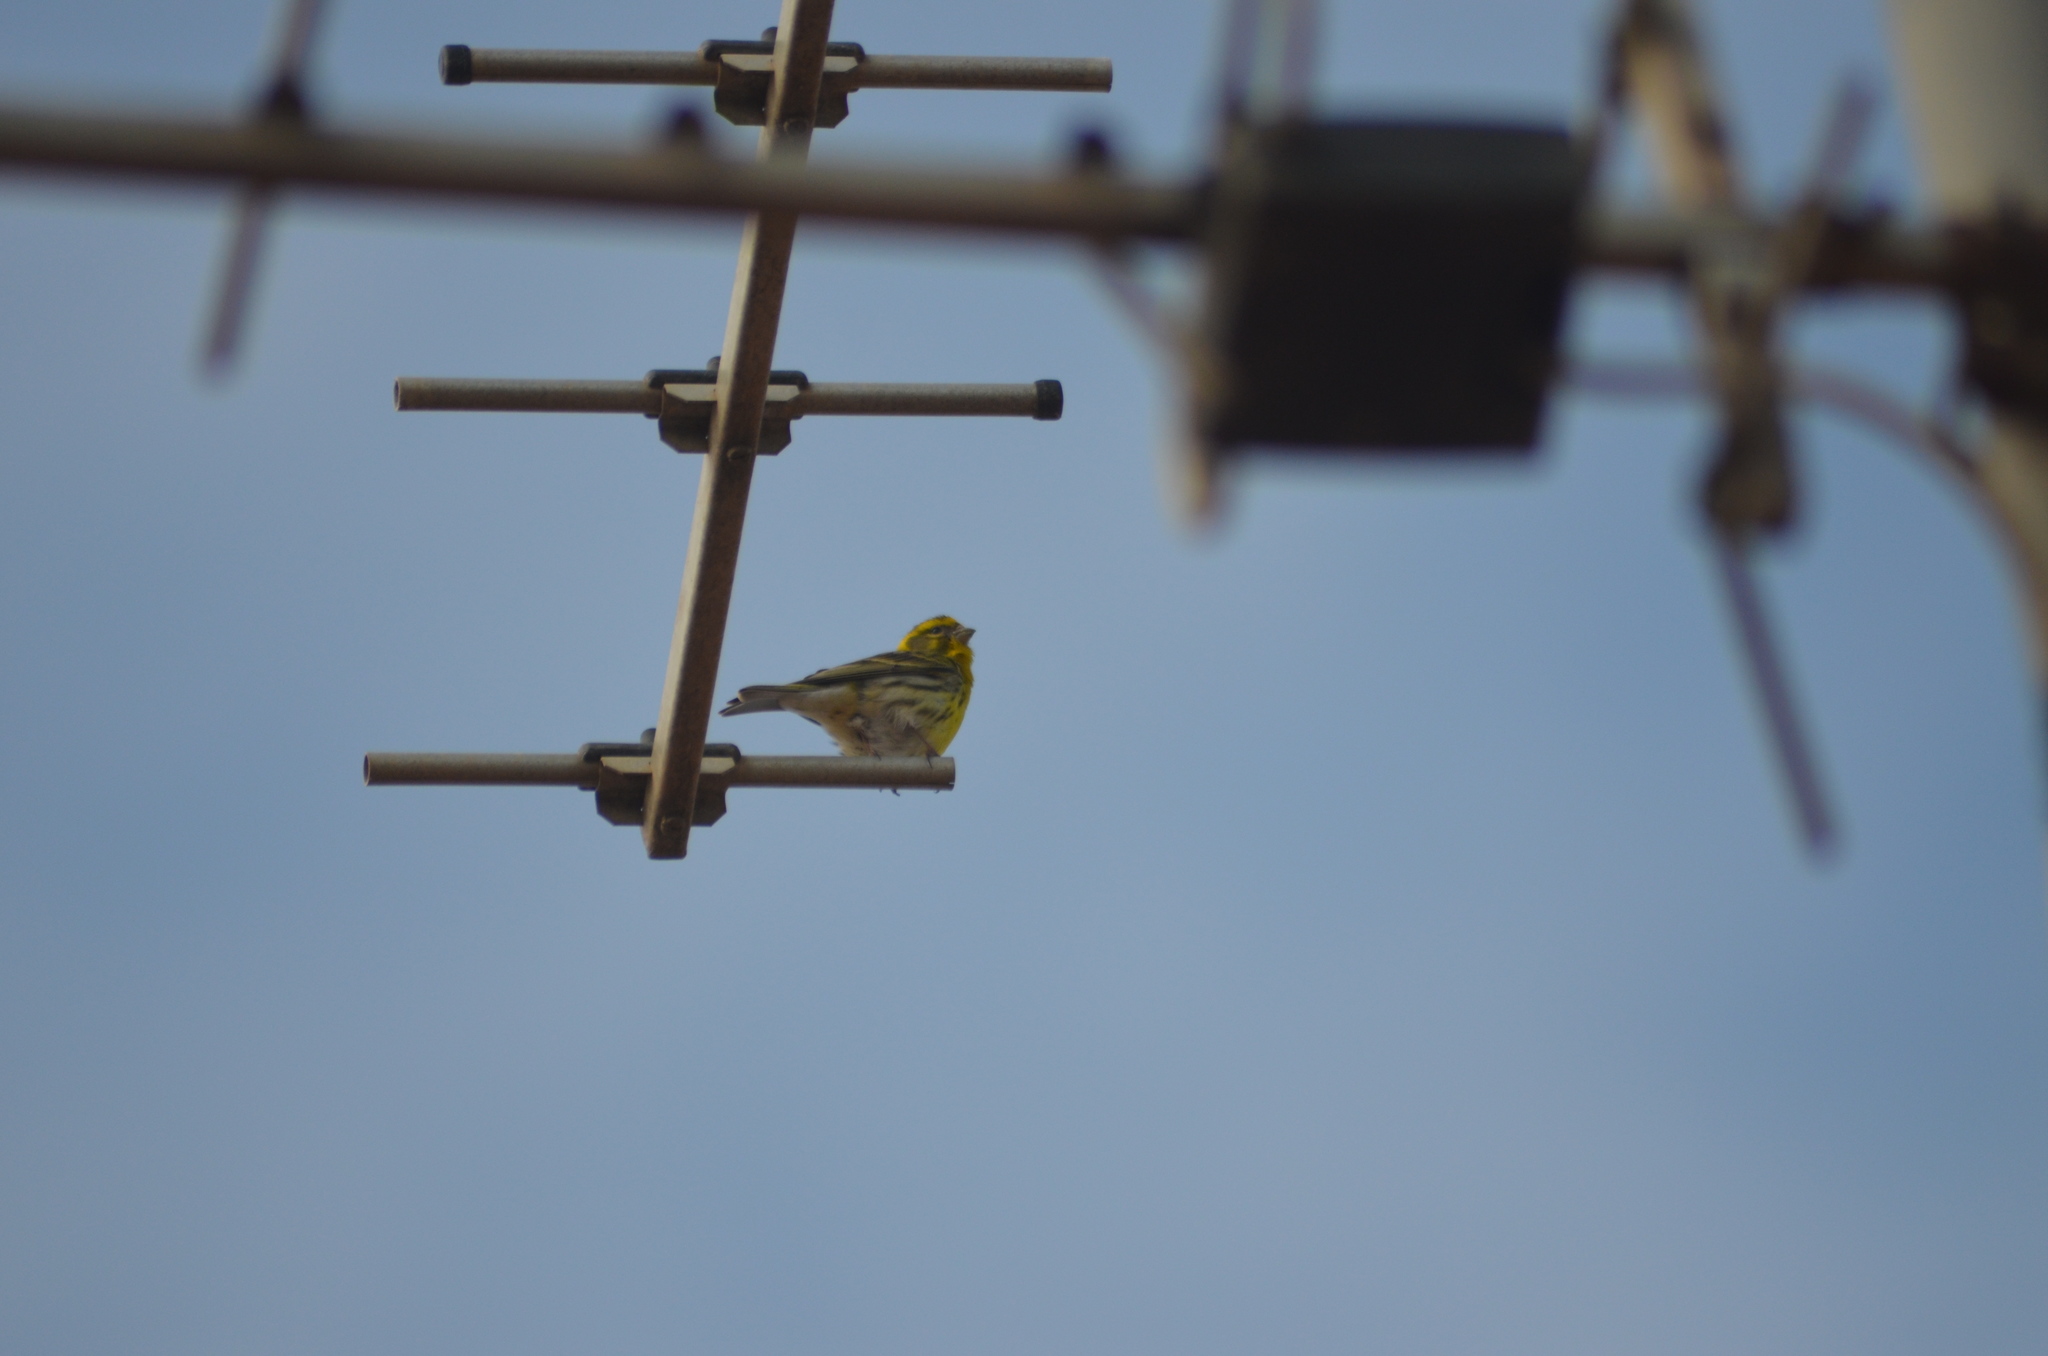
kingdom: Animalia
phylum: Chordata
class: Aves
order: Passeriformes
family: Fringillidae
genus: Serinus
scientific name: Serinus serinus
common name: European serin
